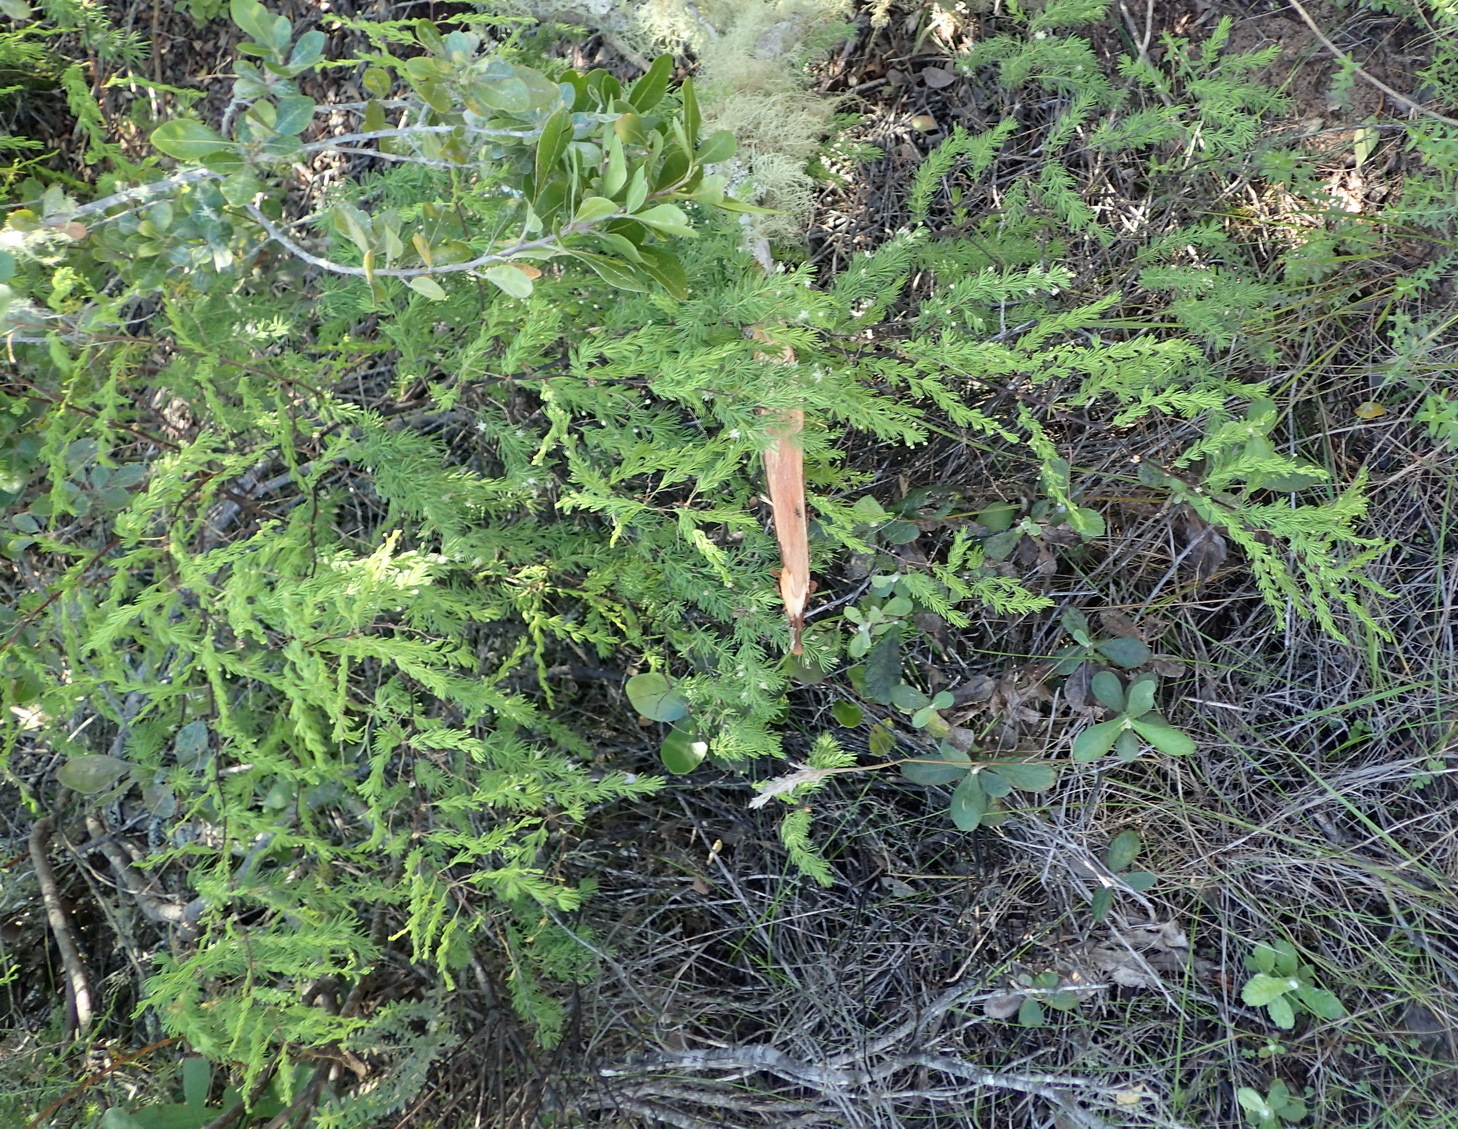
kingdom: Plantae
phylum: Tracheophyta
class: Liliopsida
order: Asparagales
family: Asparagaceae
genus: Asparagus
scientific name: Asparagus rubicundus
